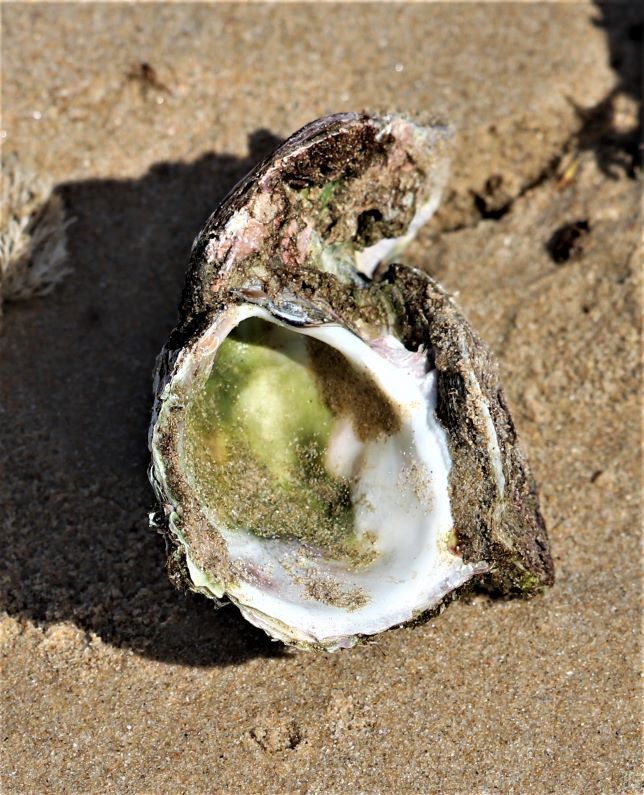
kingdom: Animalia
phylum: Mollusca
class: Bivalvia
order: Ostreida
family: Ostreidae
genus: Striostrea
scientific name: Striostrea margaritacea
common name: Cape rock oyster
